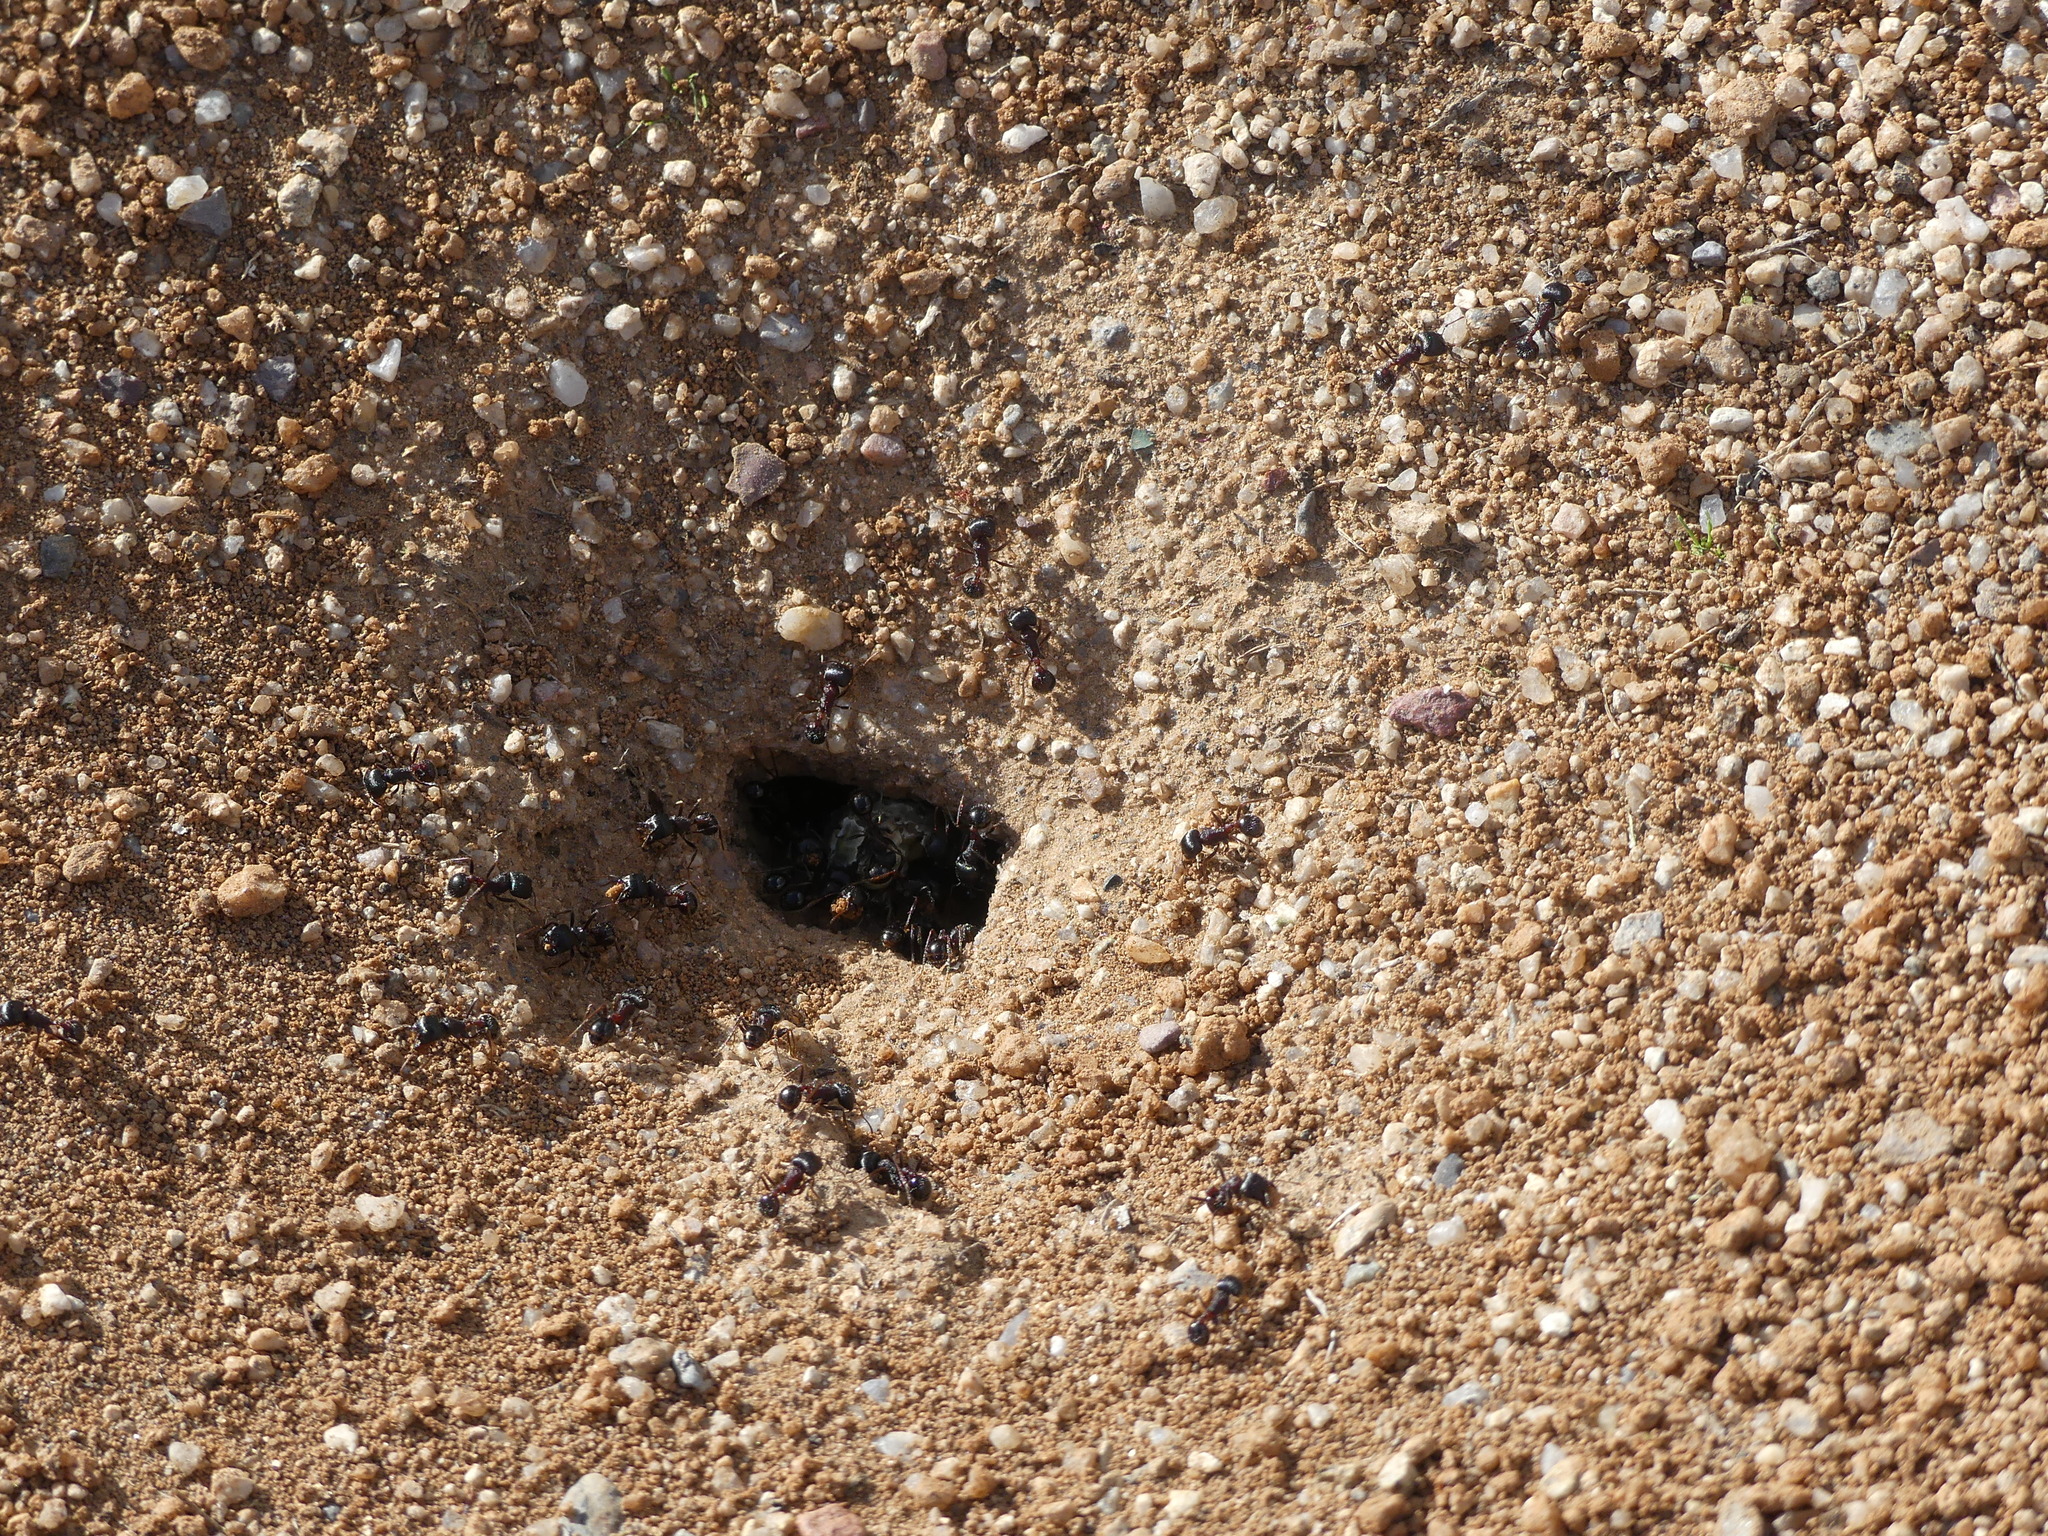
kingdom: Animalia
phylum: Arthropoda
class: Insecta
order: Hymenoptera
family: Formicidae
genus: Pogonomyrmex
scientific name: Pogonomyrmex rugosus
